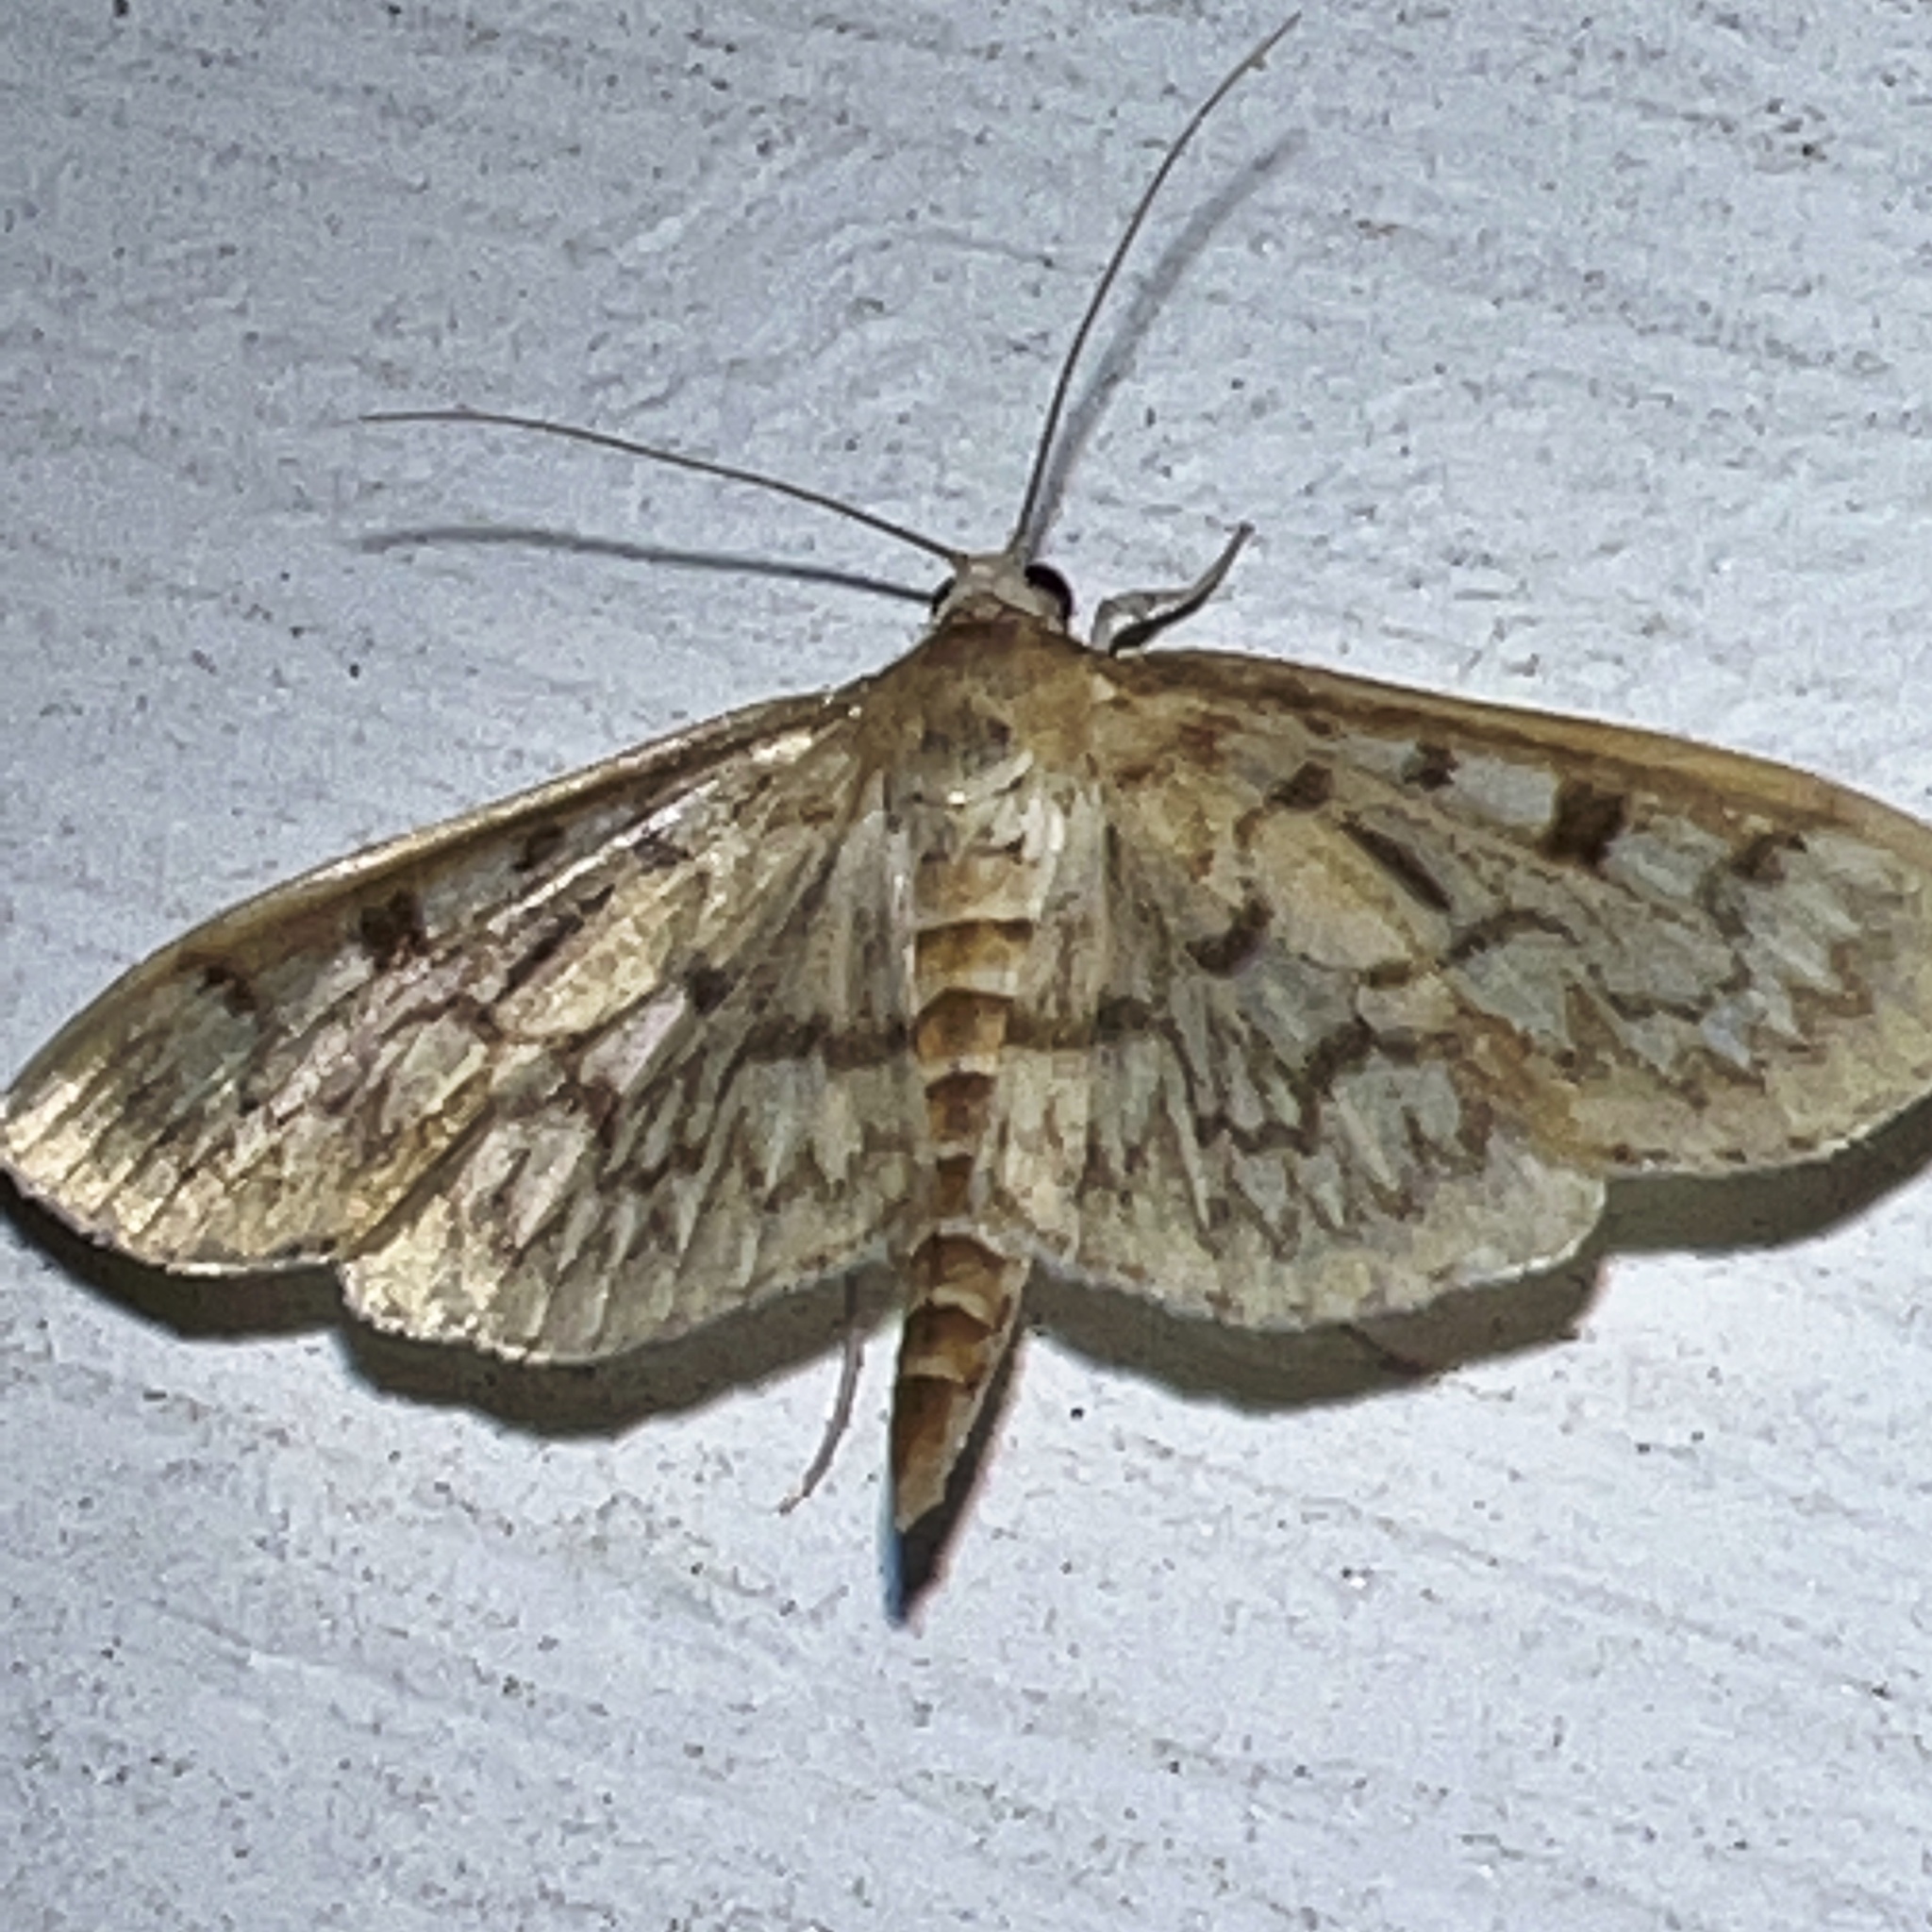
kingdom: Animalia
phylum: Arthropoda
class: Insecta
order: Lepidoptera
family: Crambidae
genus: Herpetogramma
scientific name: Herpetogramma aquilonalis
